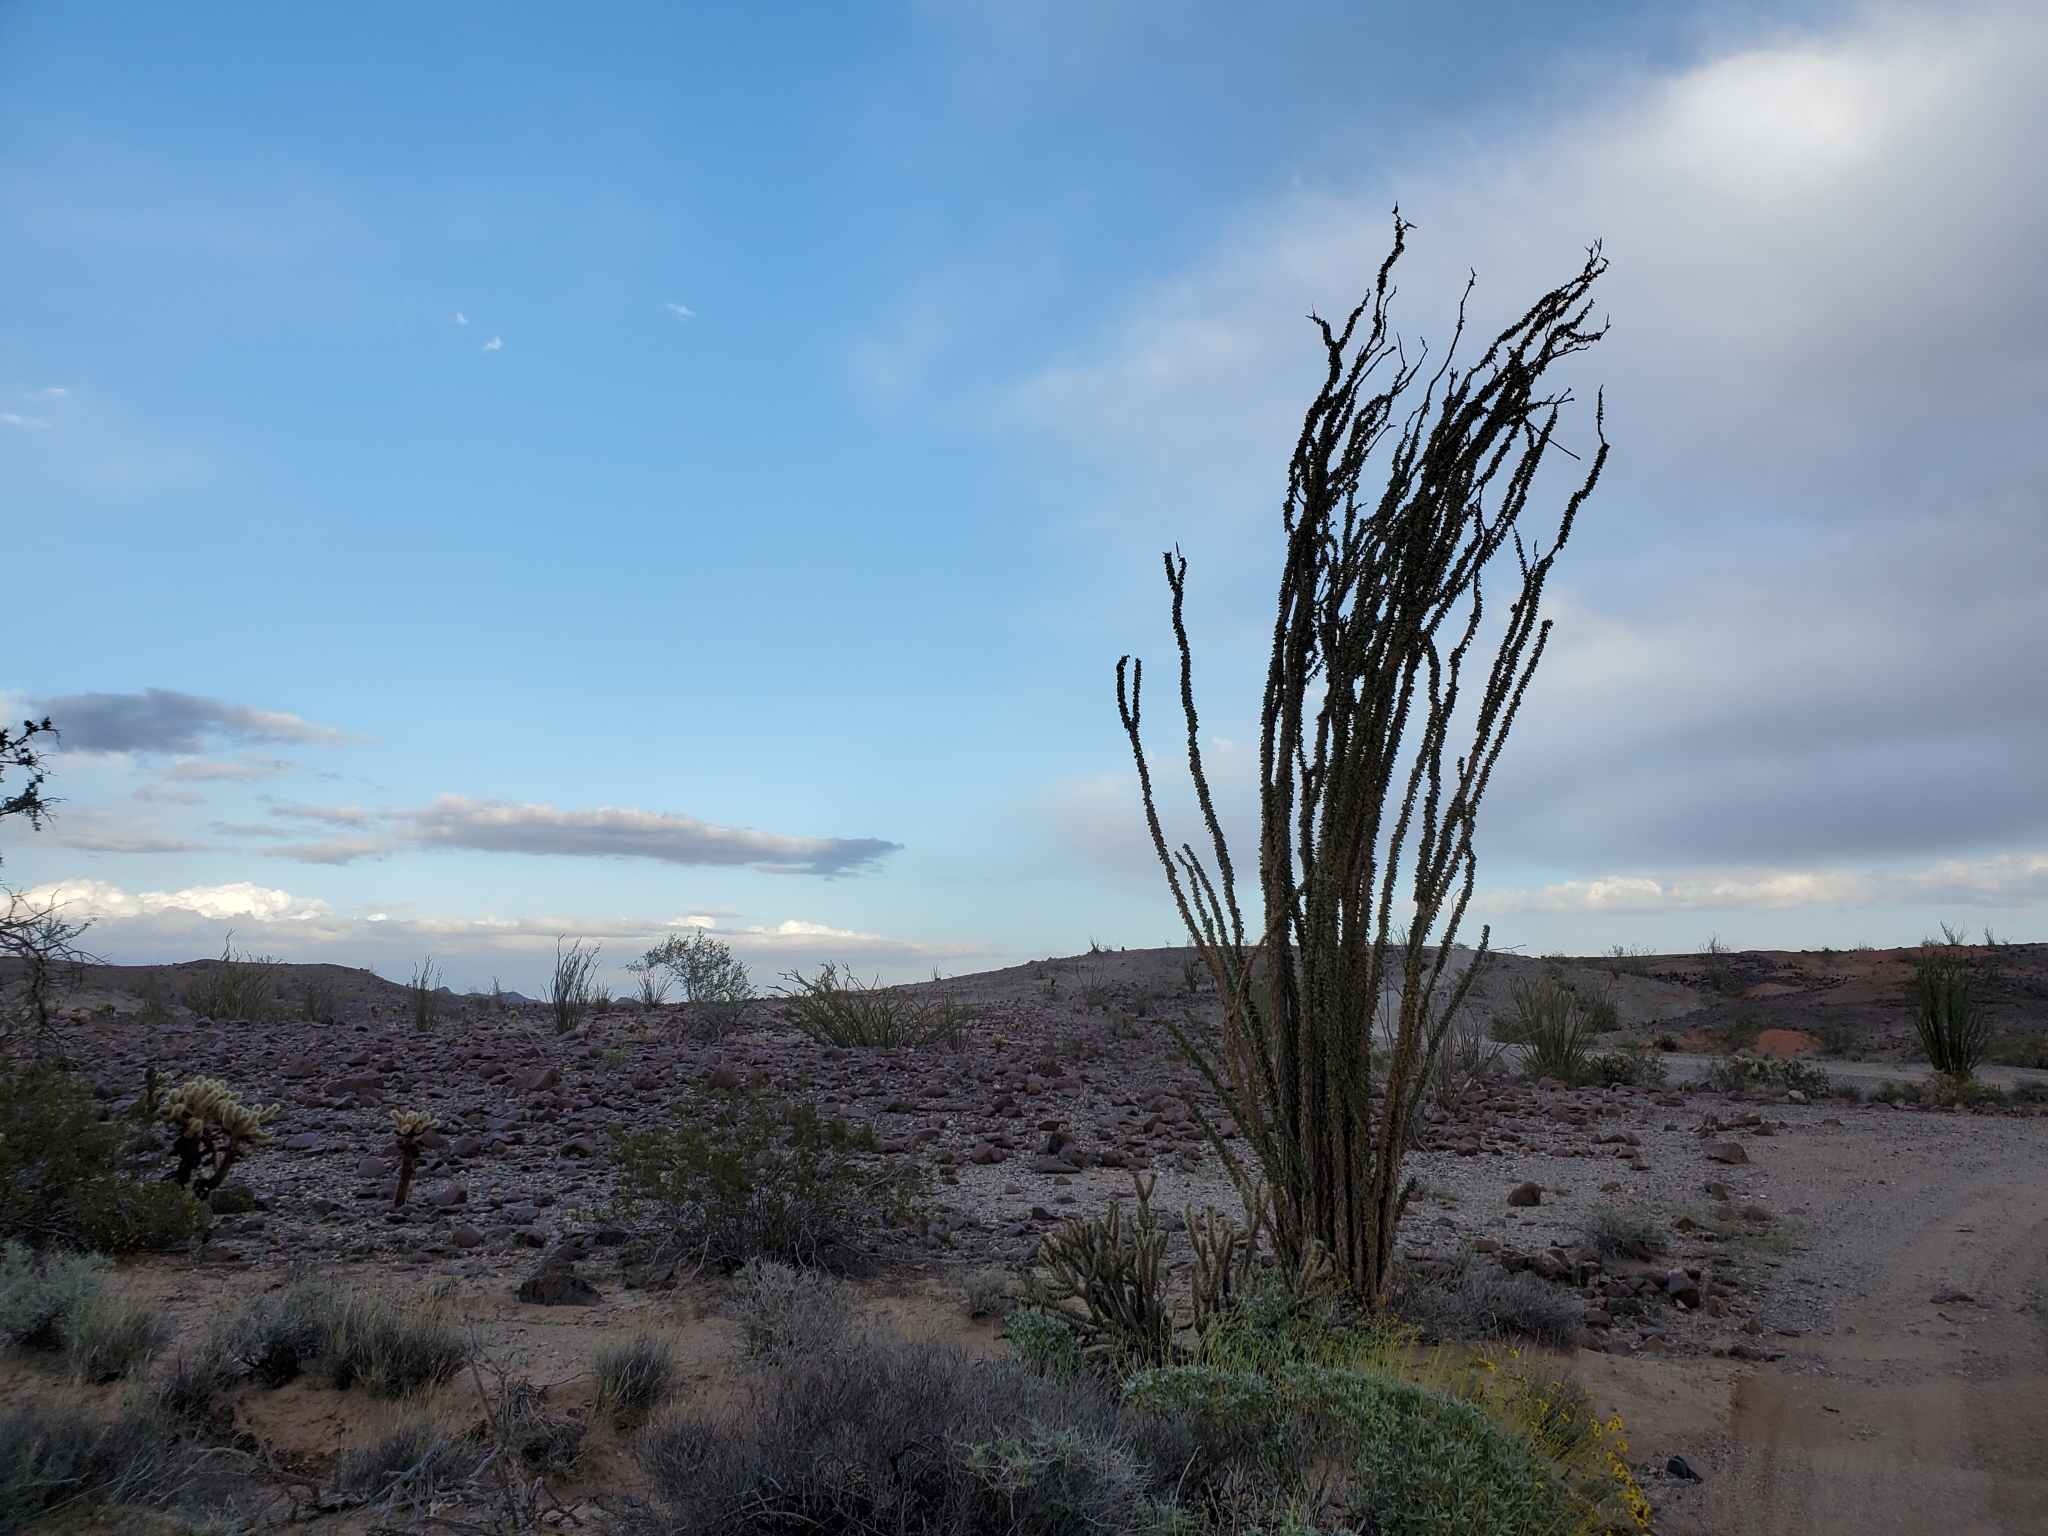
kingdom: Plantae
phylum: Tracheophyta
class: Magnoliopsida
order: Ericales
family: Fouquieriaceae
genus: Fouquieria
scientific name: Fouquieria splendens
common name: Vine-cactus
